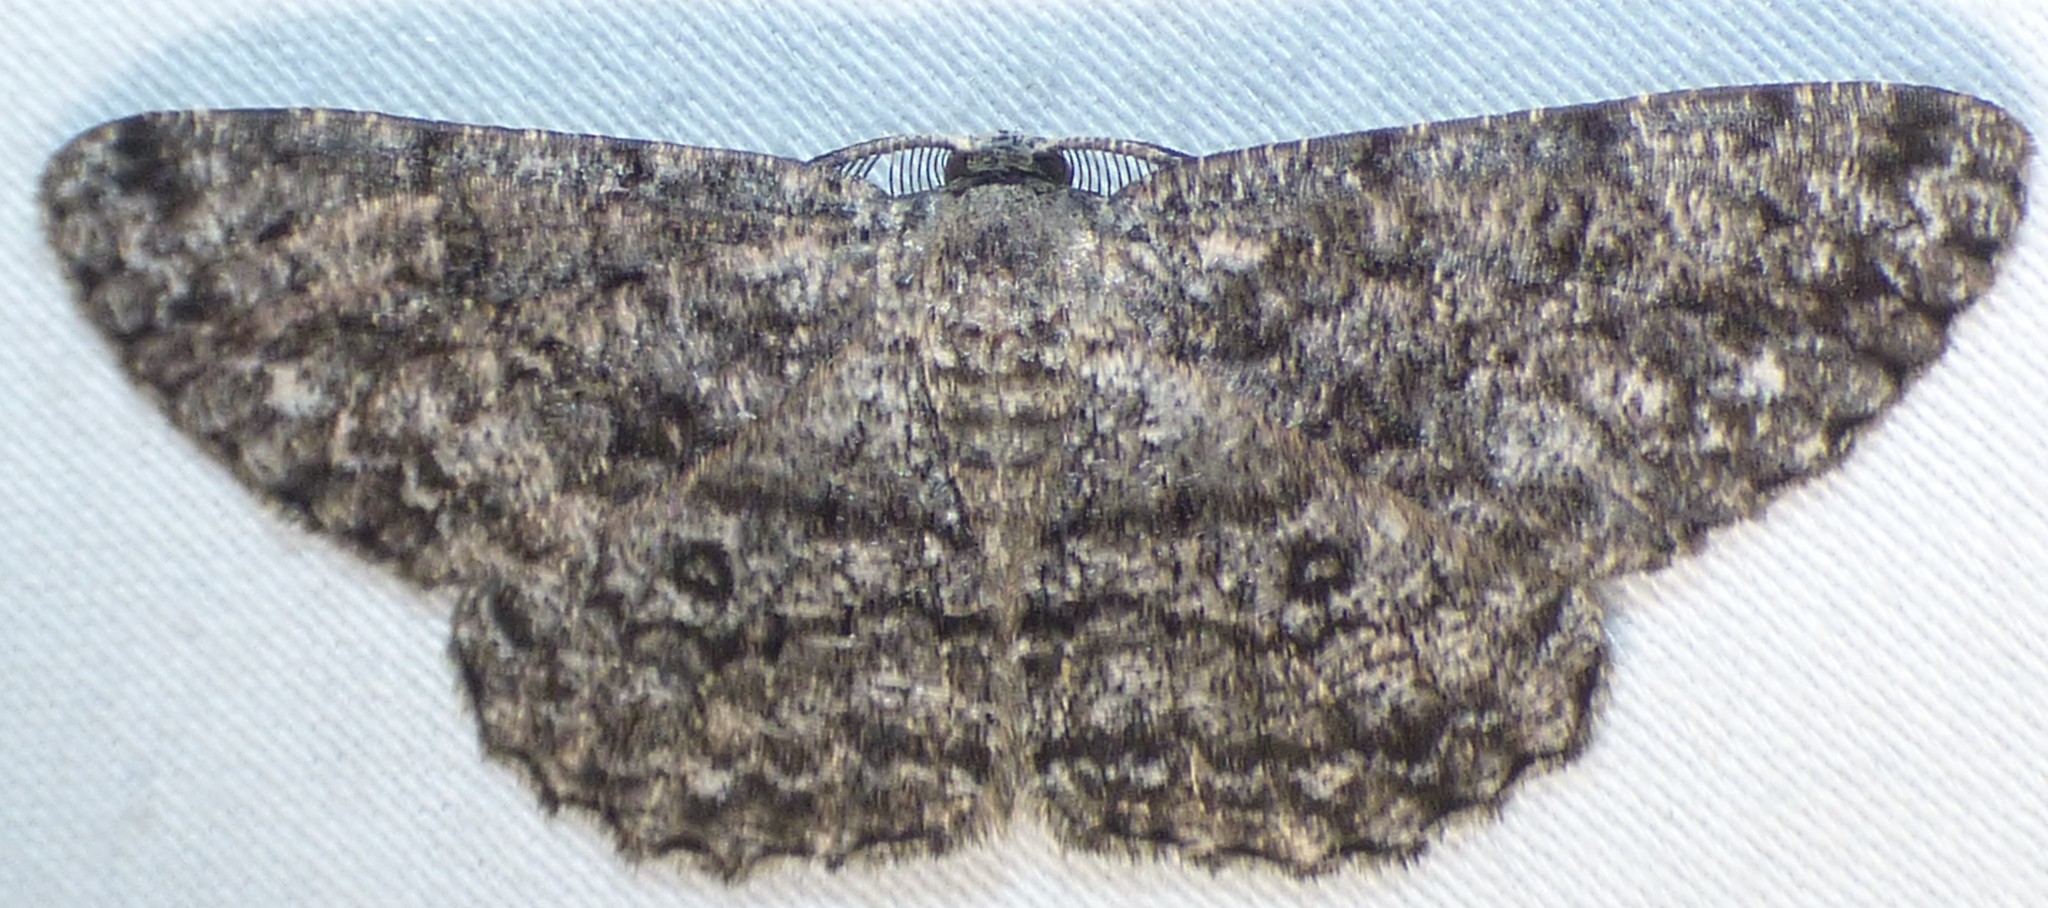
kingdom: Animalia
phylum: Arthropoda
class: Insecta
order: Lepidoptera
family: Geometridae
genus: Hypomecis
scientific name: Hypomecis umbrosaria
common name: Umber moth
